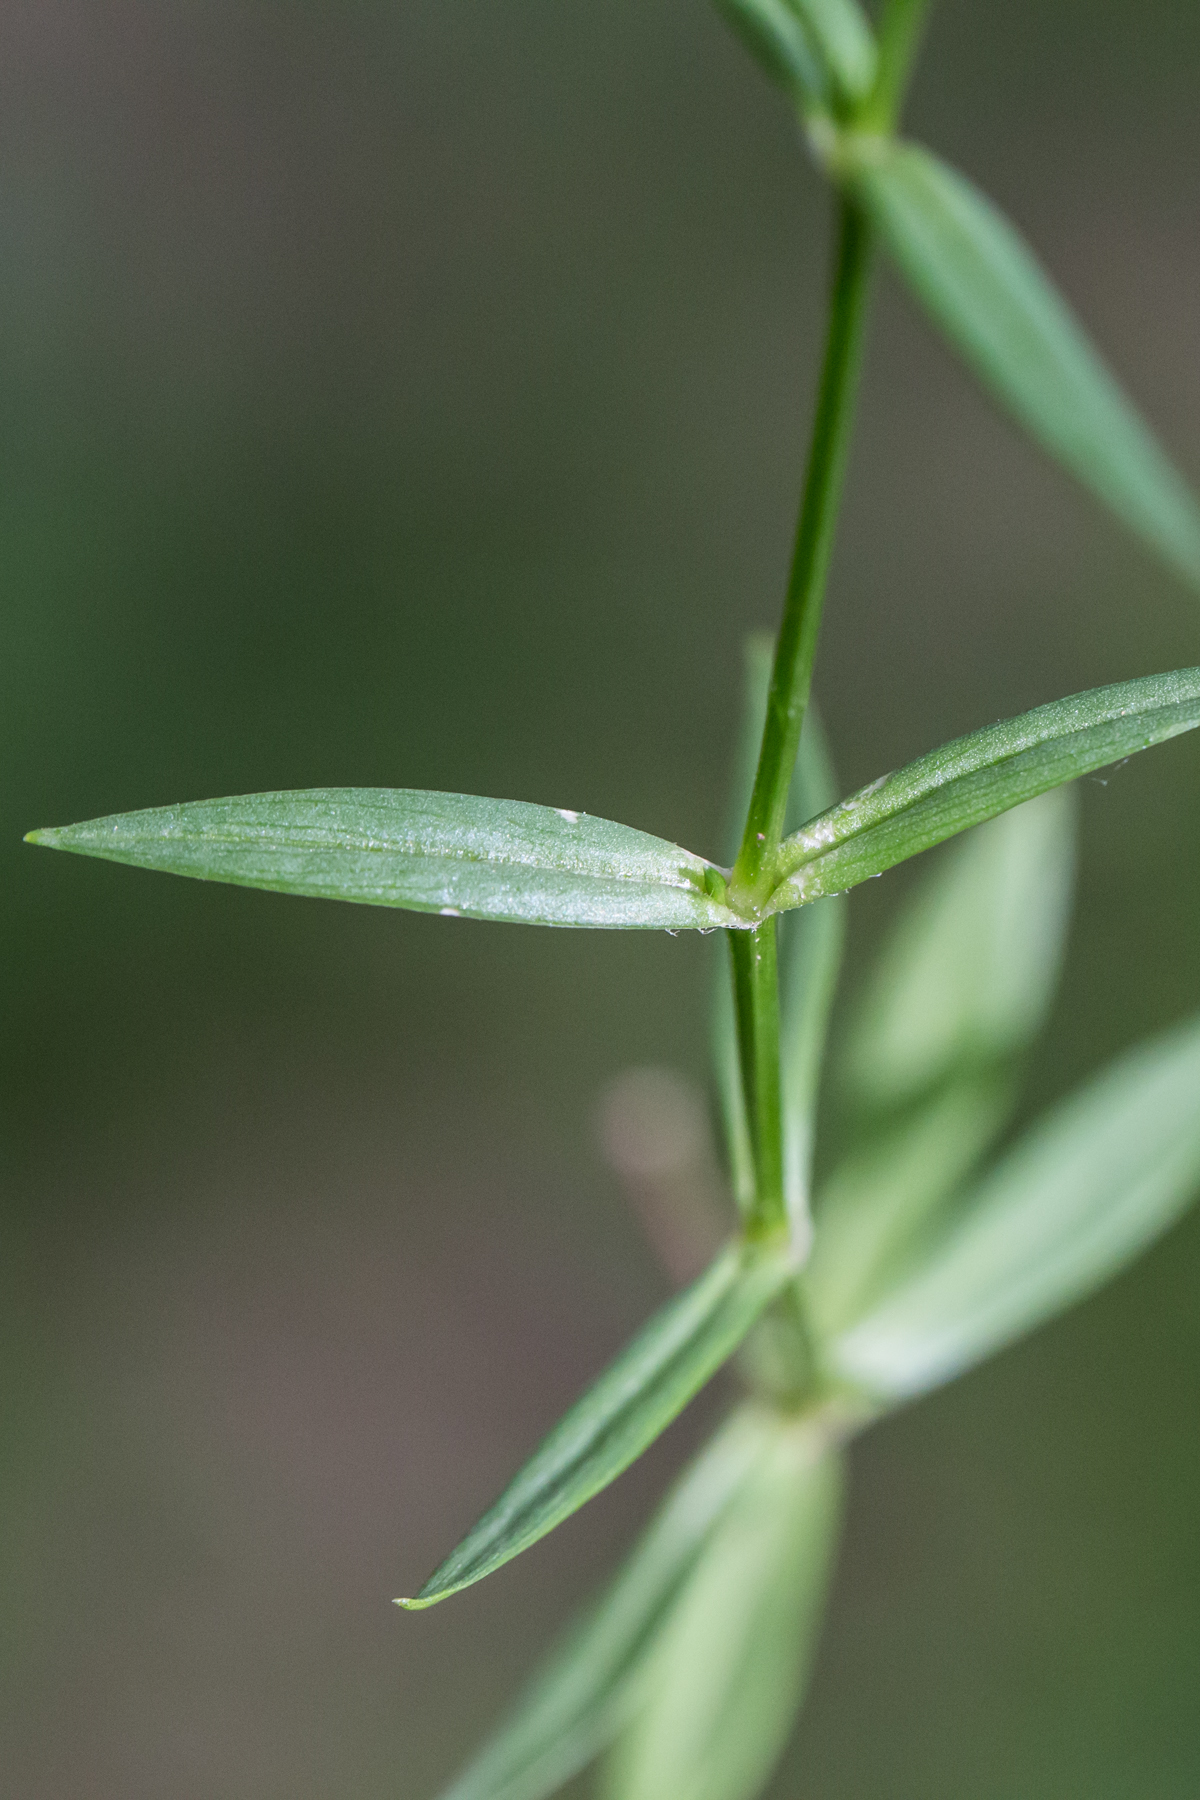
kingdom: Plantae
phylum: Tracheophyta
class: Magnoliopsida
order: Caryophyllales
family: Caryophyllaceae
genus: Stellaria
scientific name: Stellaria graminea
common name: Grass-like starwort
